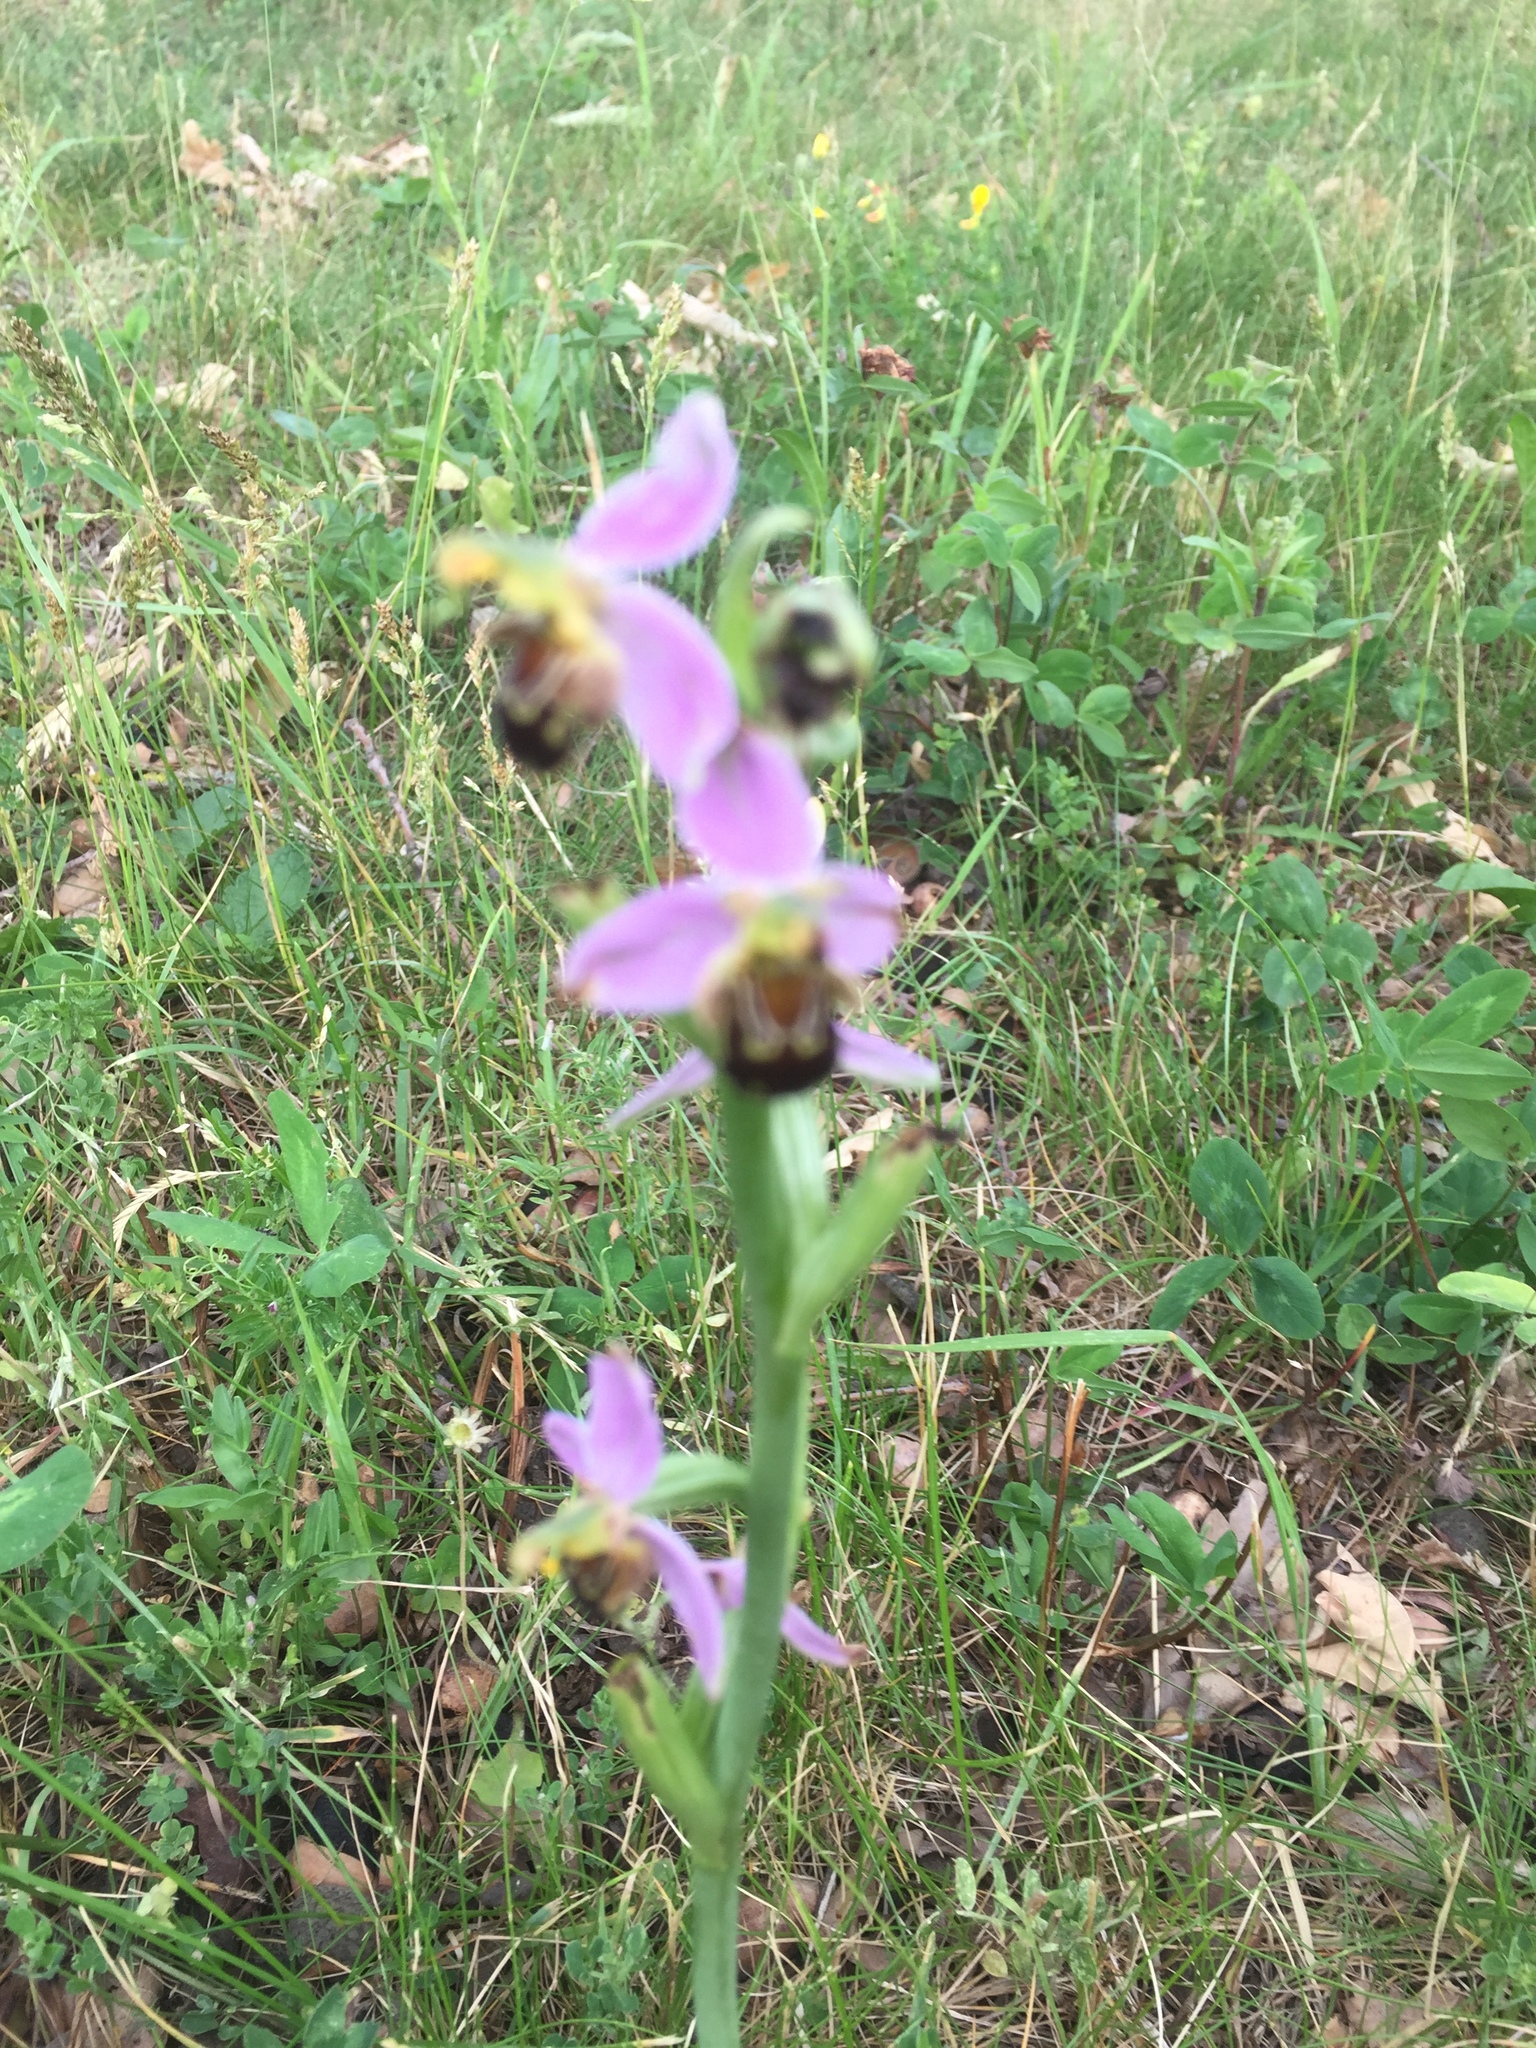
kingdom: Plantae
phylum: Tracheophyta
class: Liliopsida
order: Asparagales
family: Orchidaceae
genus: Ophrys
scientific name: Ophrys apifera
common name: Bee orchid
